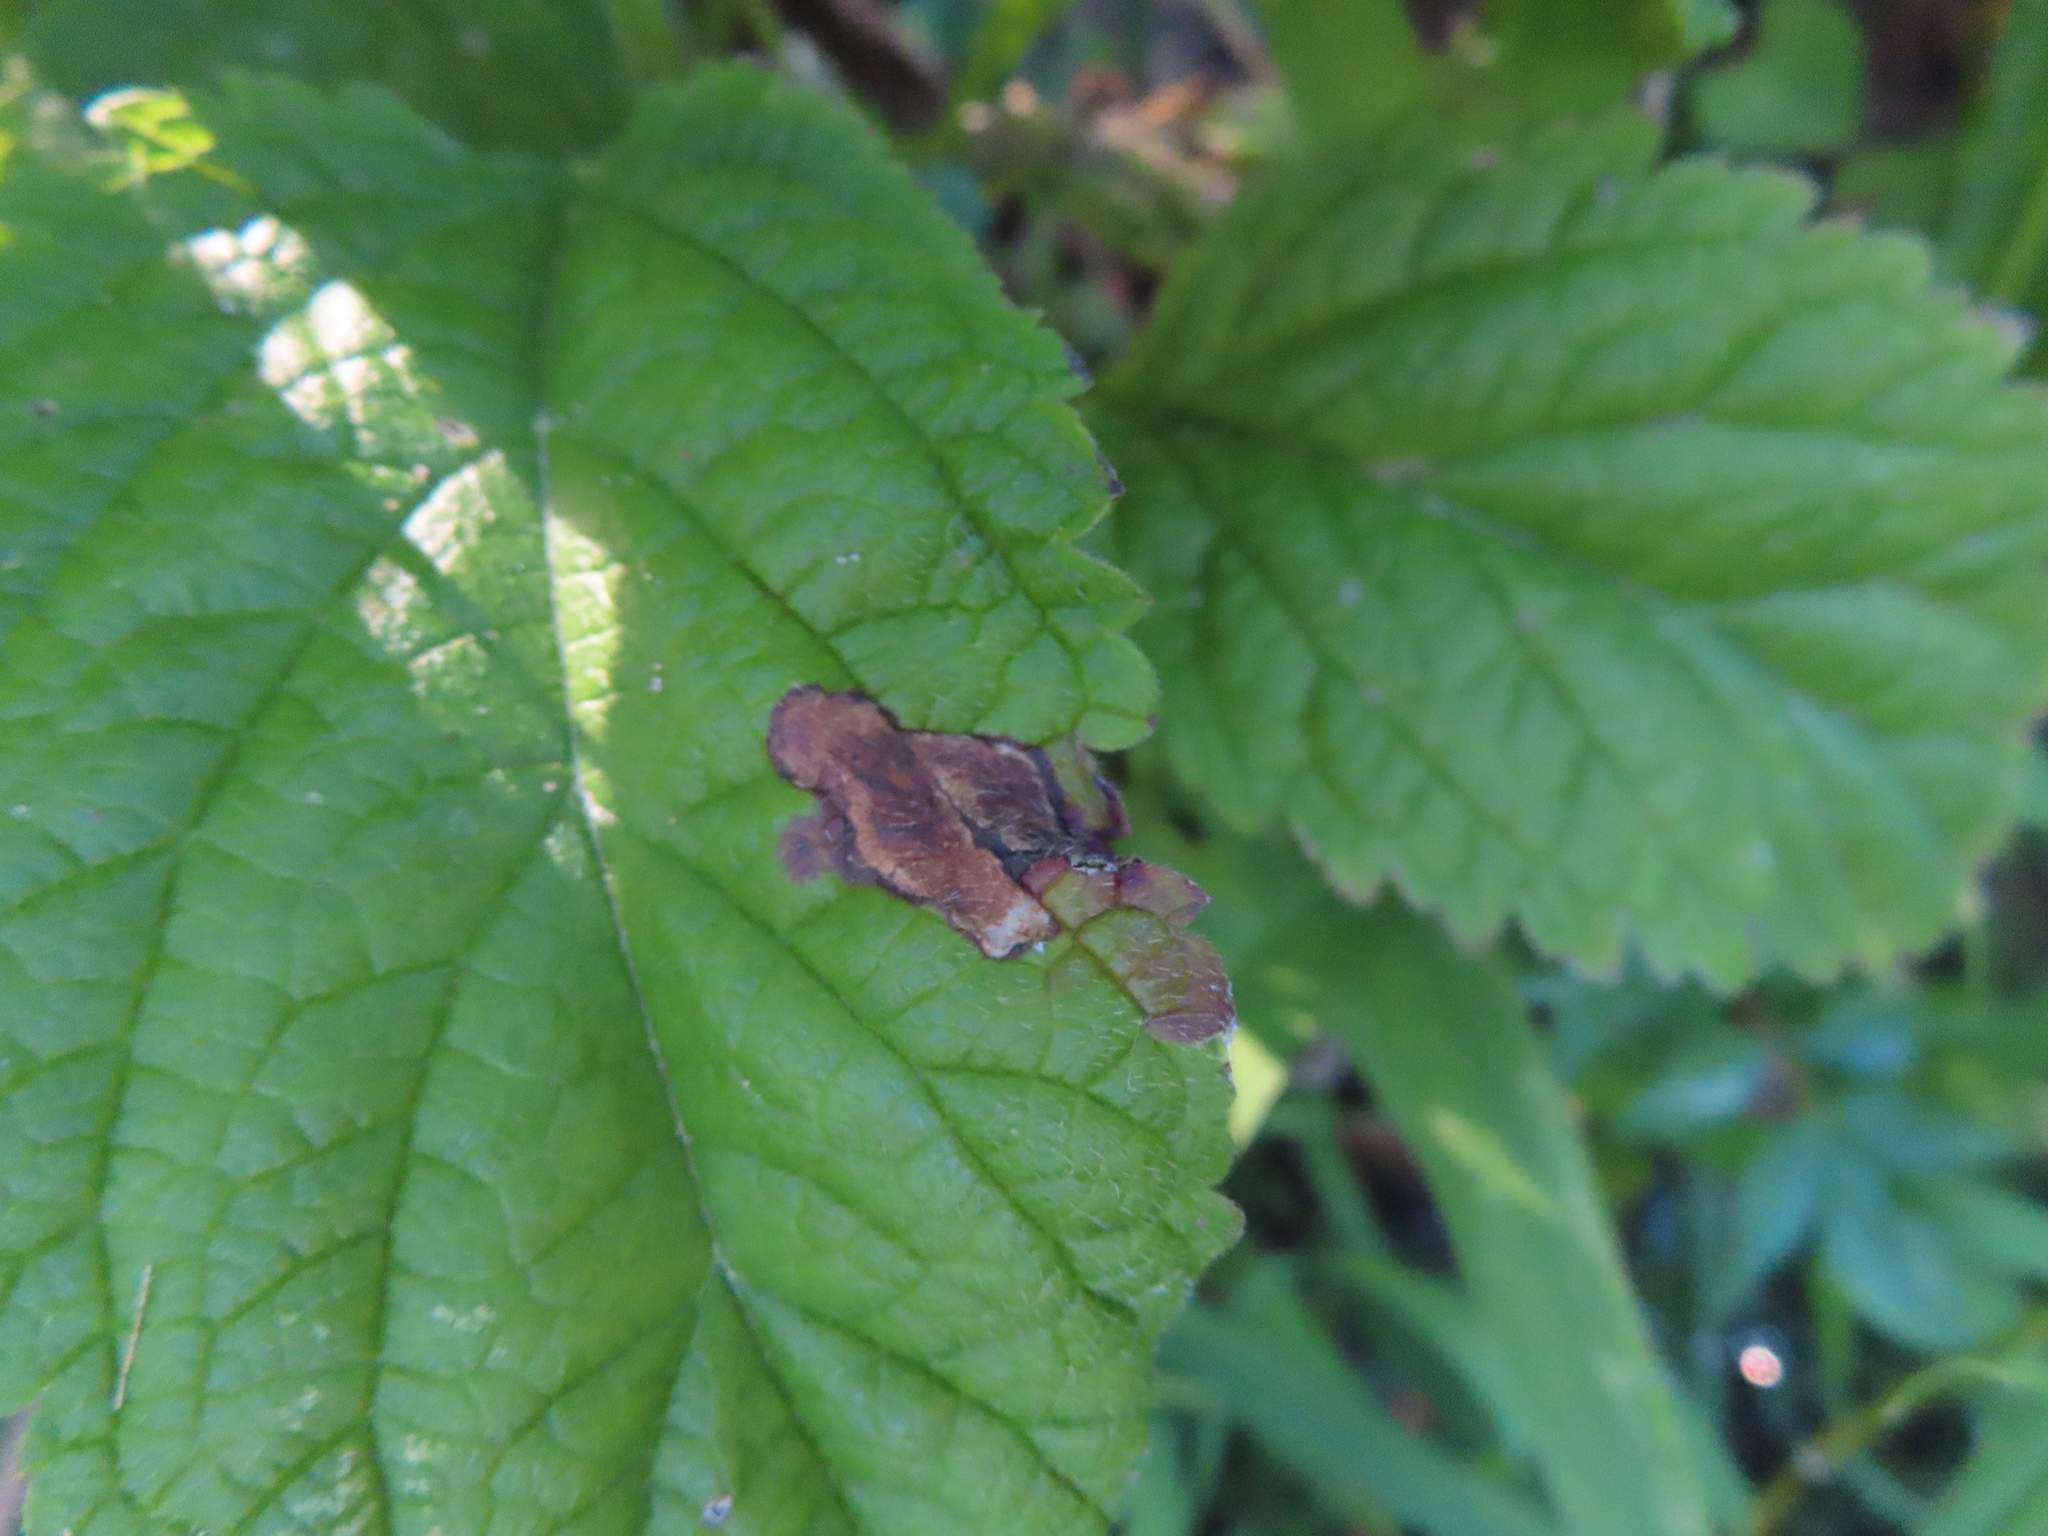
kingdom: Animalia
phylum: Arthropoda
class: Insecta
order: Diptera
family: Agromyzidae
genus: Calycomyza
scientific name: Calycomyza verbenae
